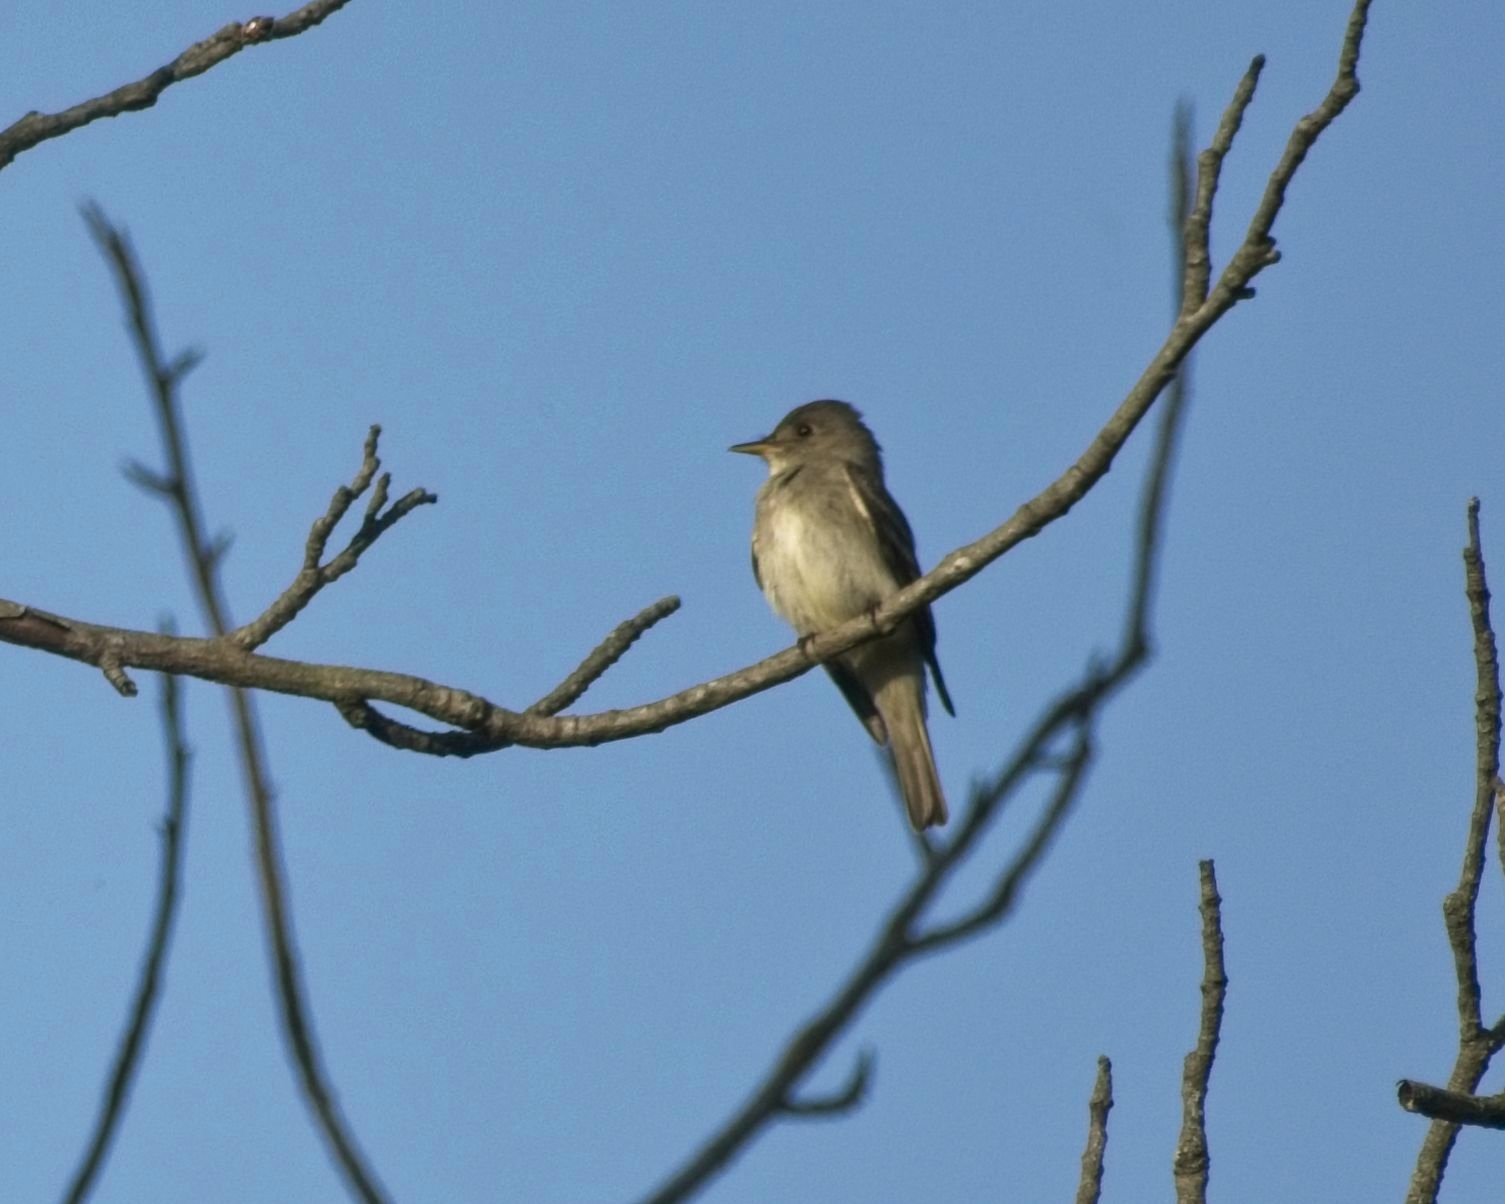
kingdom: Animalia
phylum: Chordata
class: Aves
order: Passeriformes
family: Tyrannidae
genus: Contopus
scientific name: Contopus virens
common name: Eastern wood-pewee
